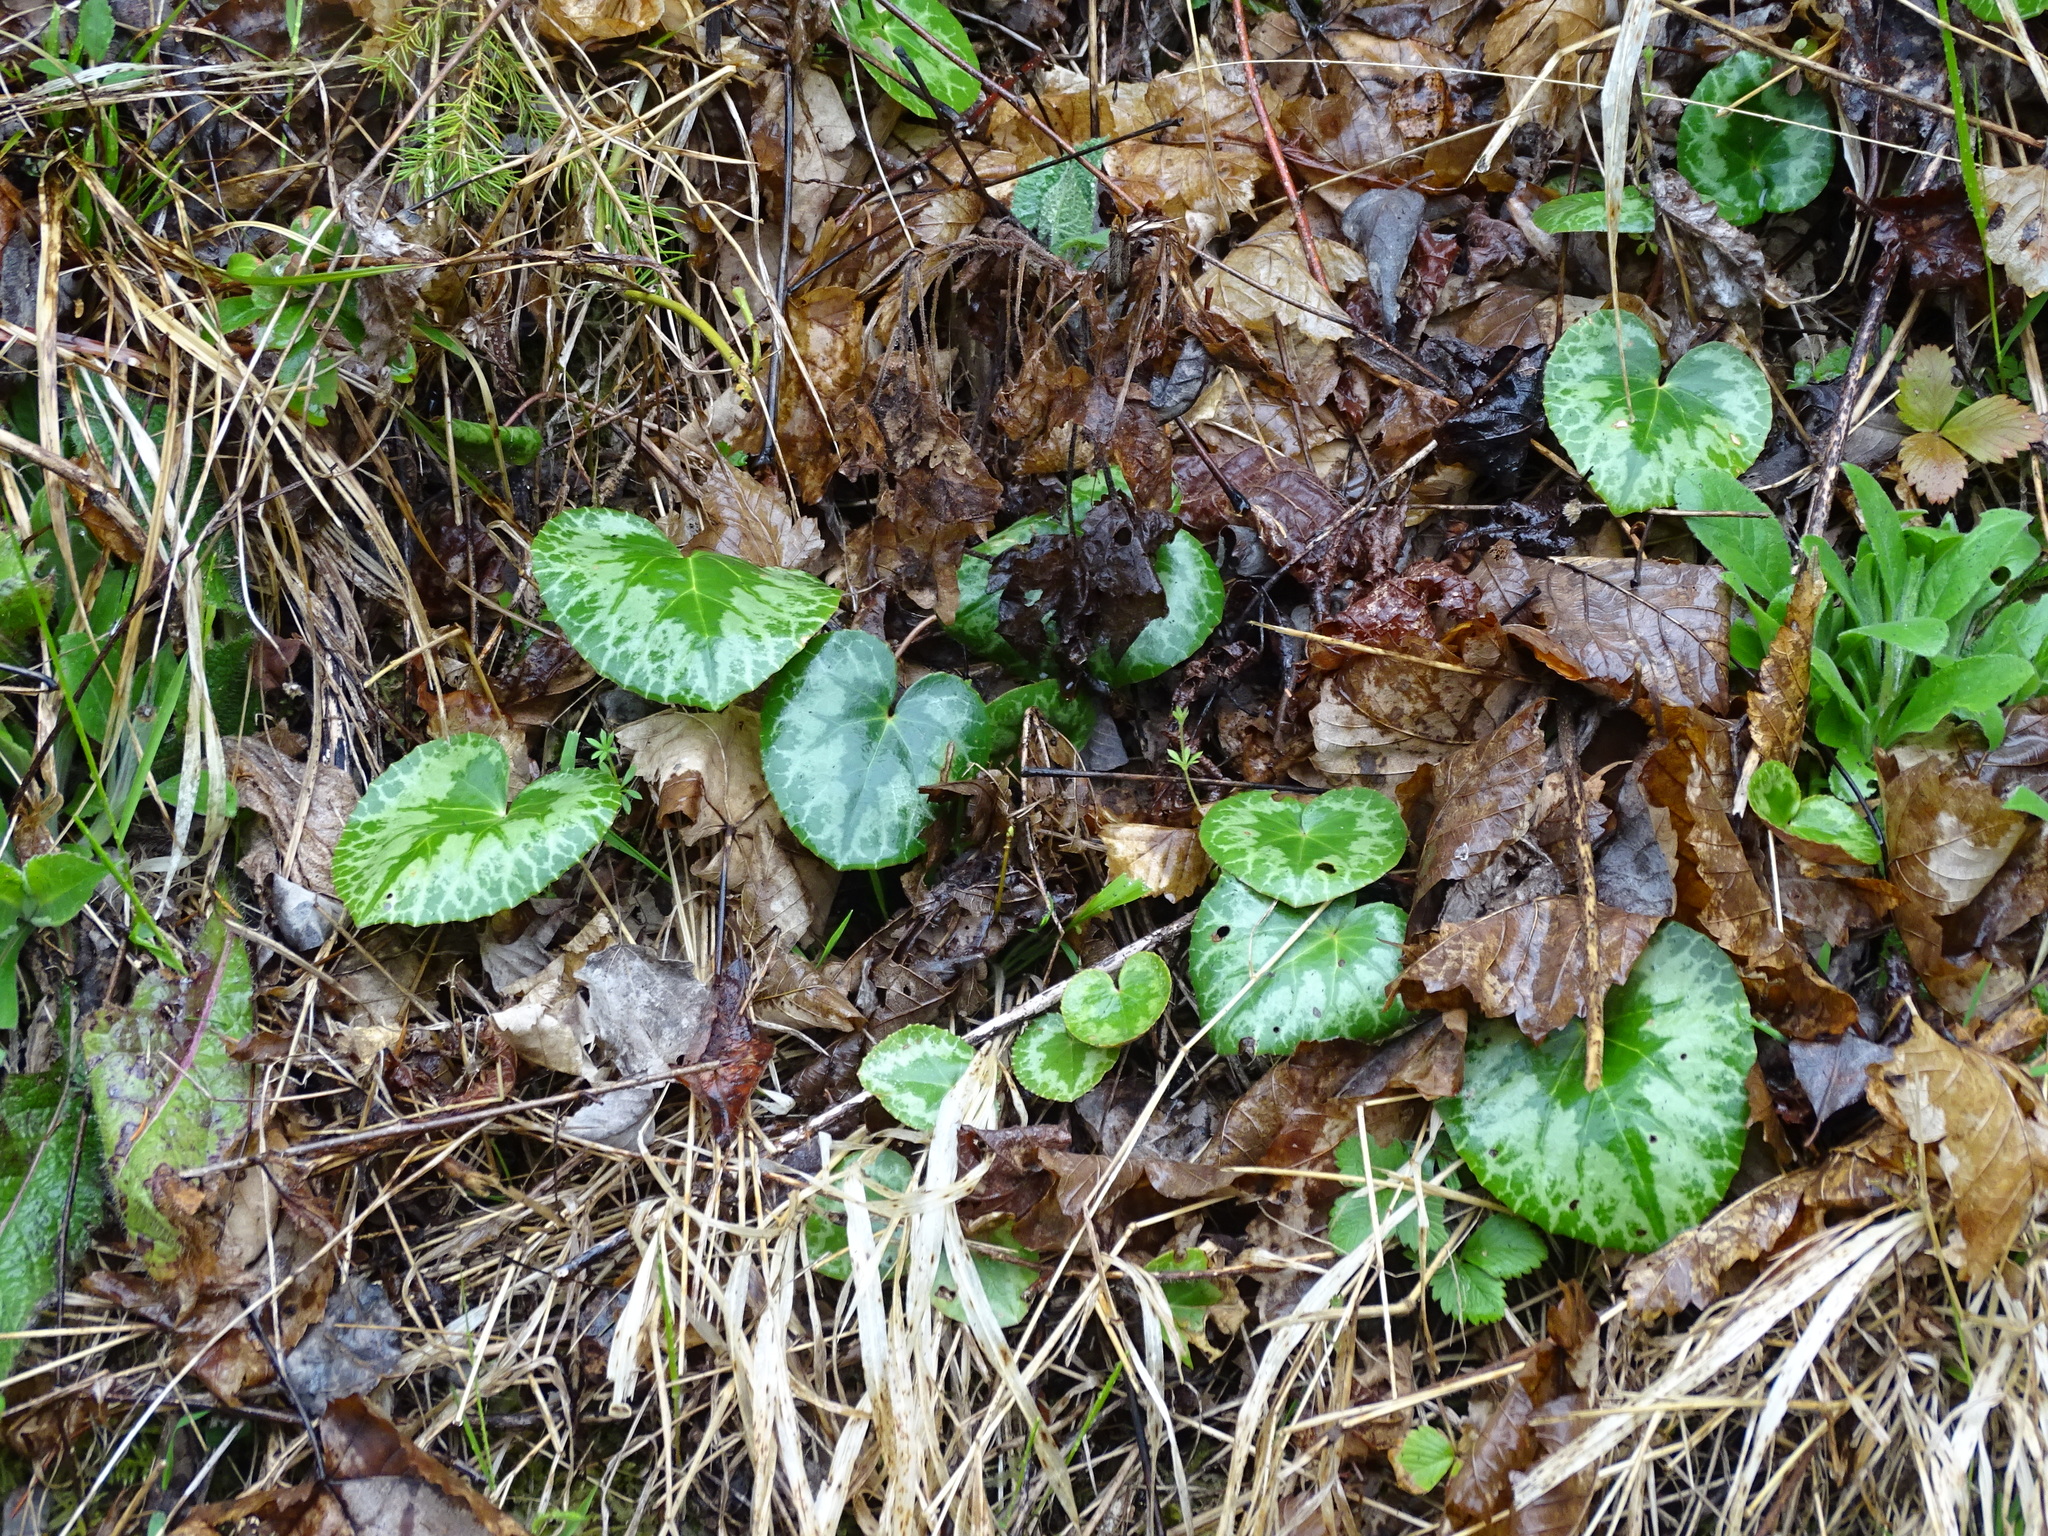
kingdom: Plantae
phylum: Tracheophyta
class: Magnoliopsida
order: Ericales
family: Primulaceae
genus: Cyclamen
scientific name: Cyclamen purpurascens
